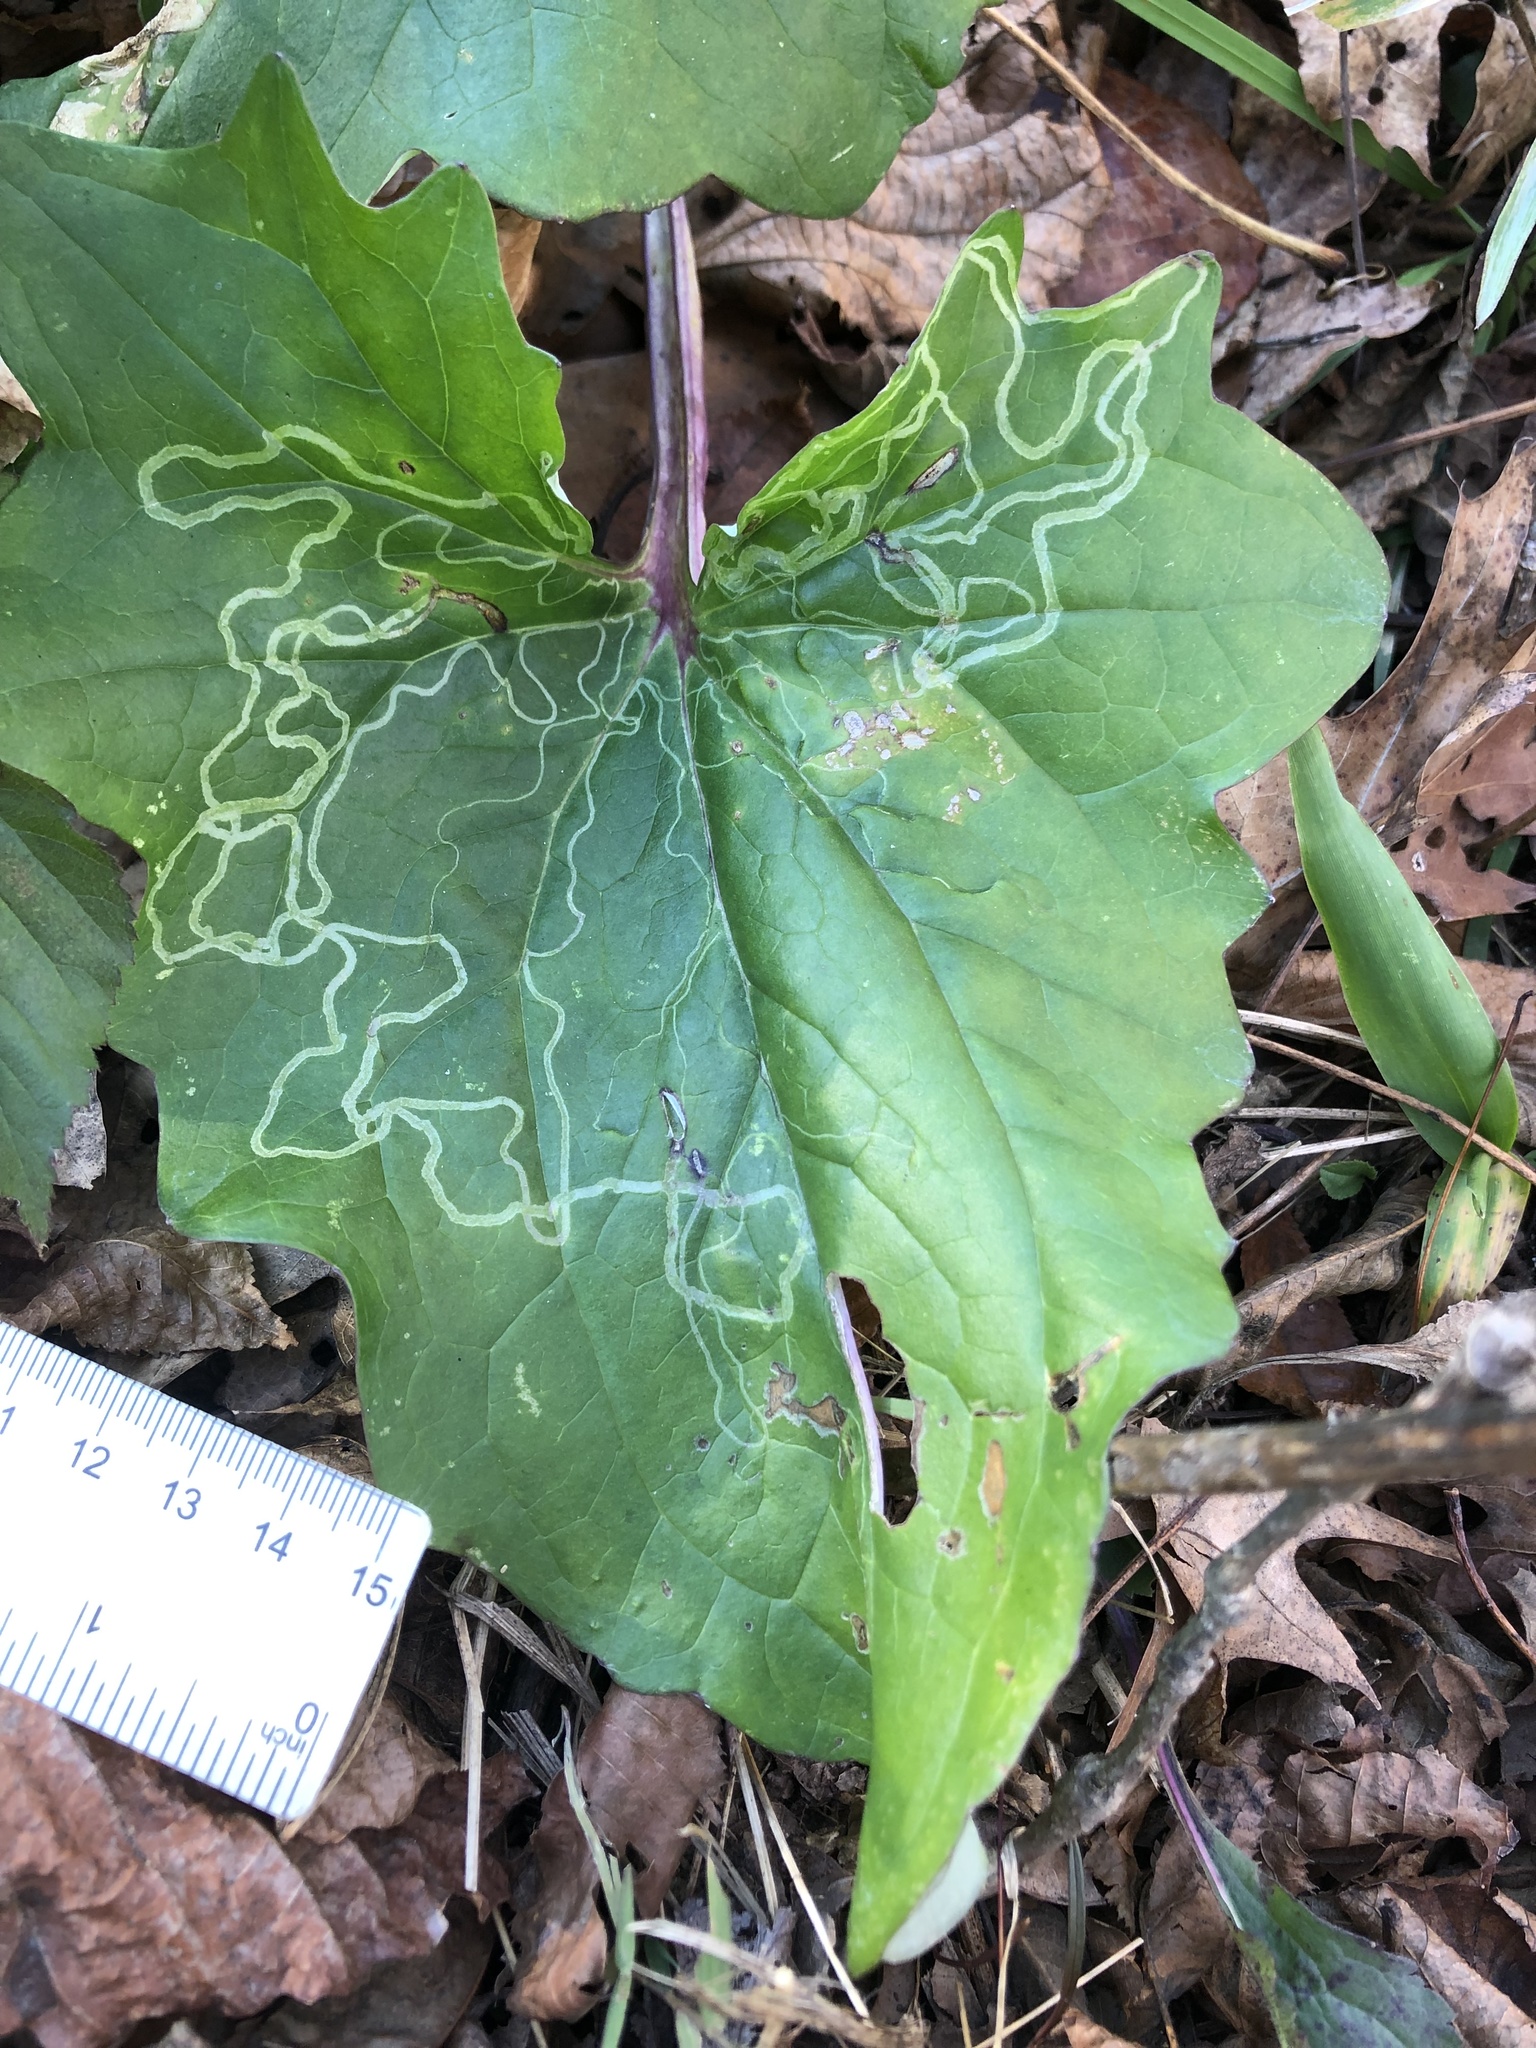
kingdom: Animalia
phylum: Arthropoda
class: Insecta
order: Lepidoptera
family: Gracillariidae
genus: Phyllocnistis
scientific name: Phyllocnistis insignis
